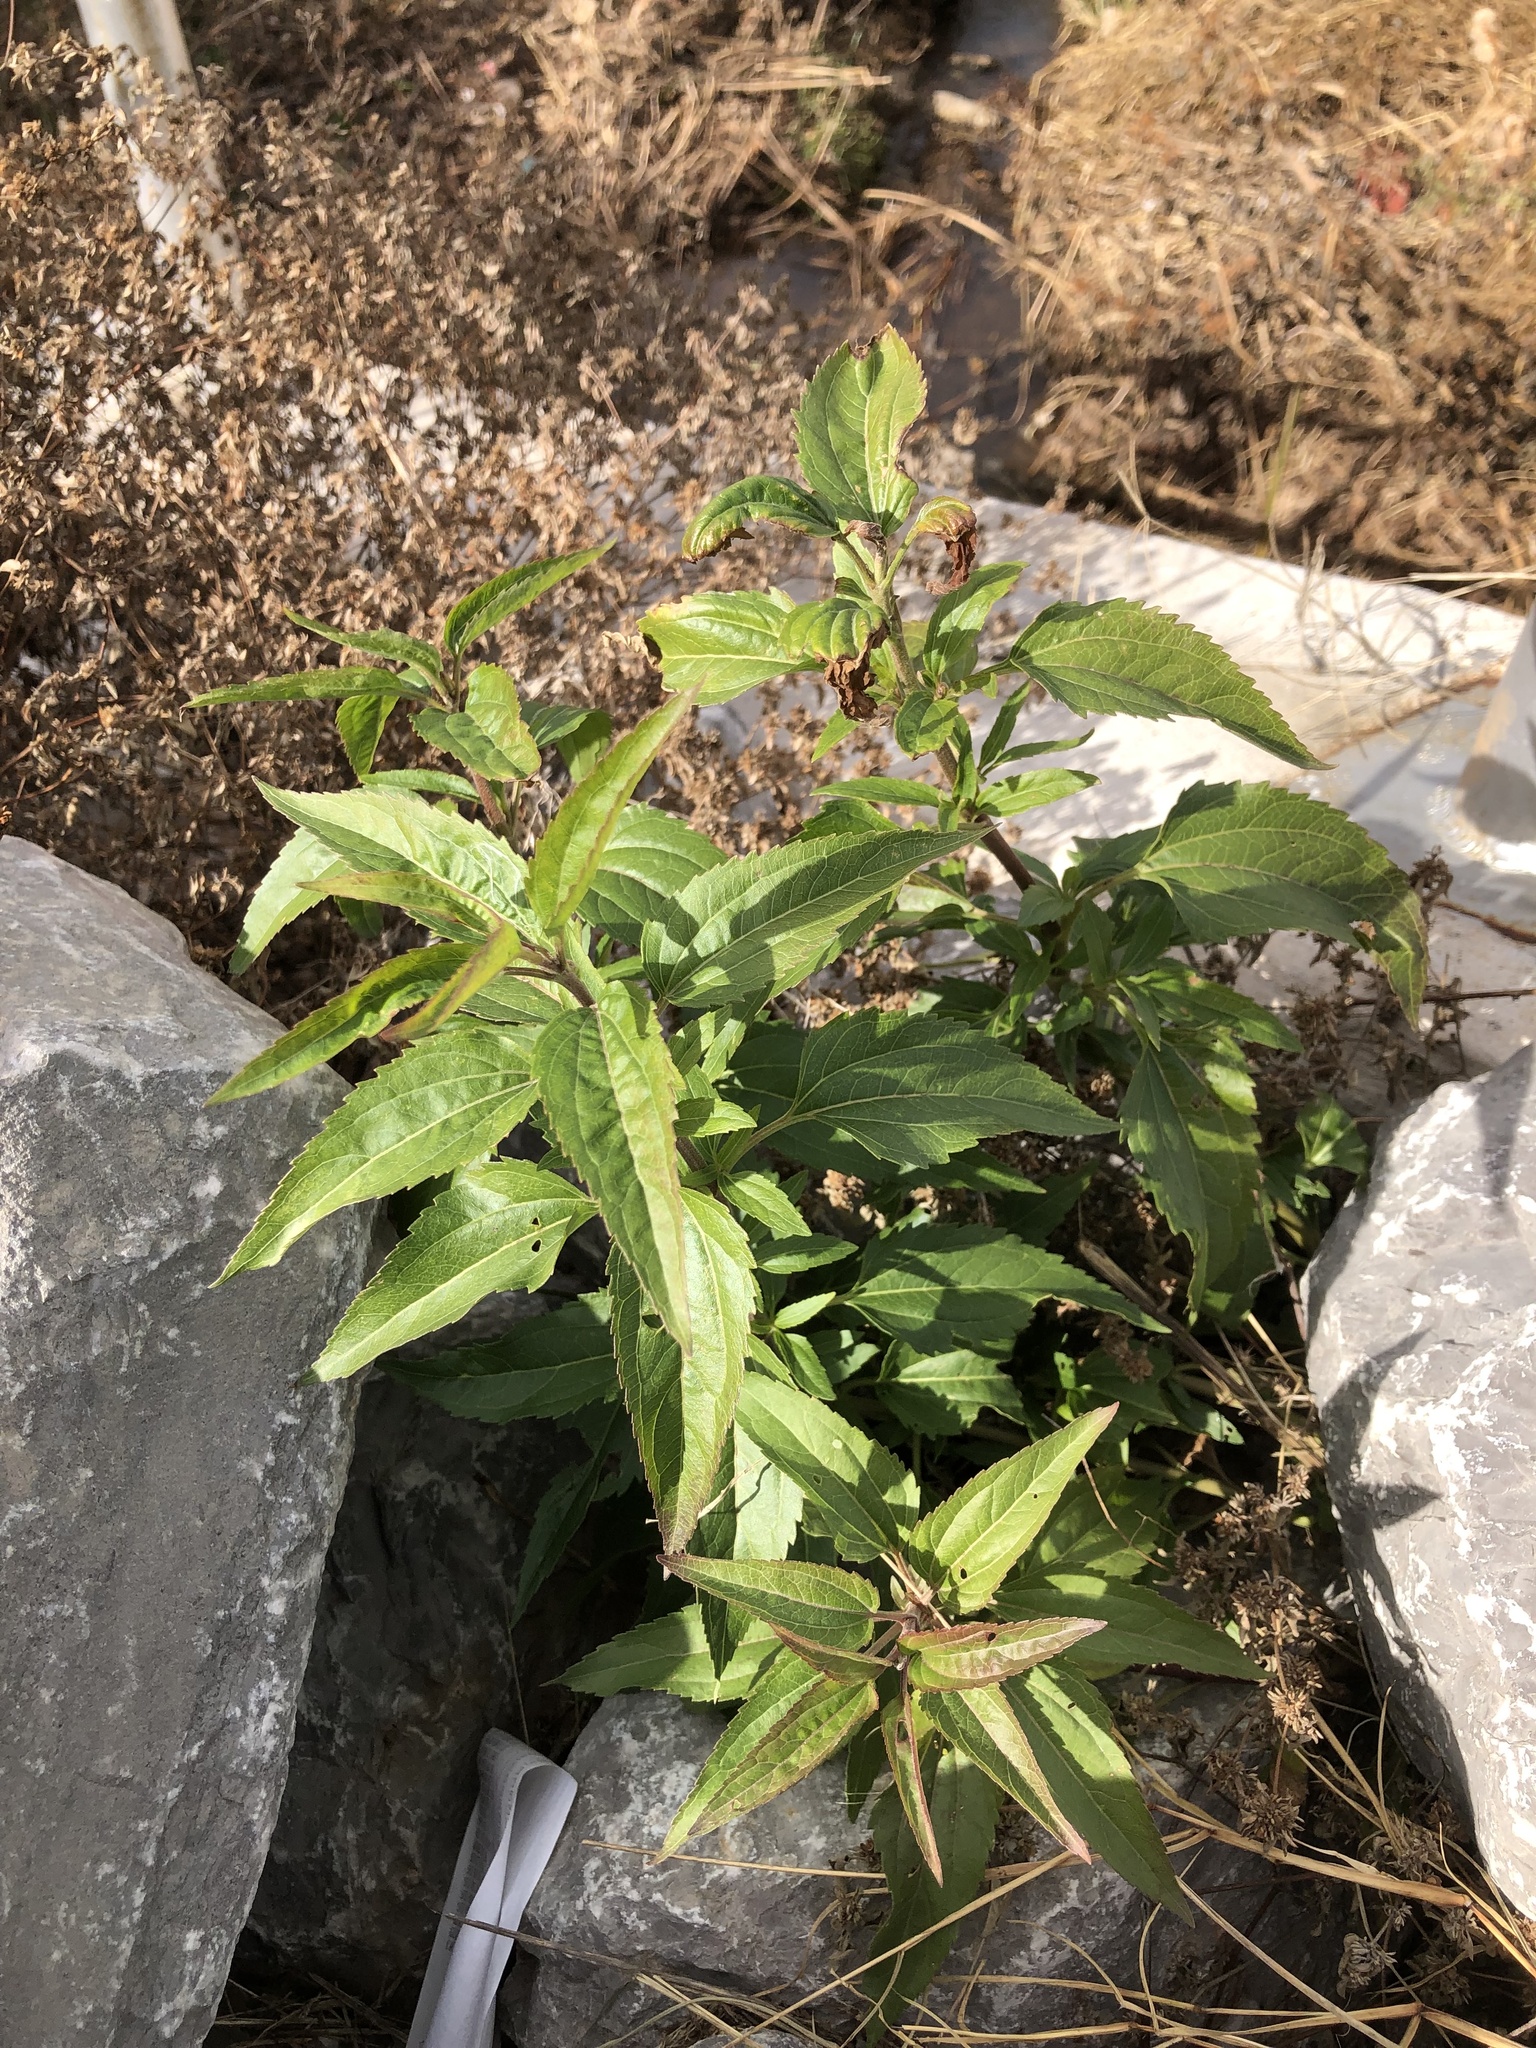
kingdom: Plantae
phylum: Tracheophyta
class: Magnoliopsida
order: Asterales
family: Asteraceae
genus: Eupatorium
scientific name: Eupatorium serotinum
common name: Late boneset
